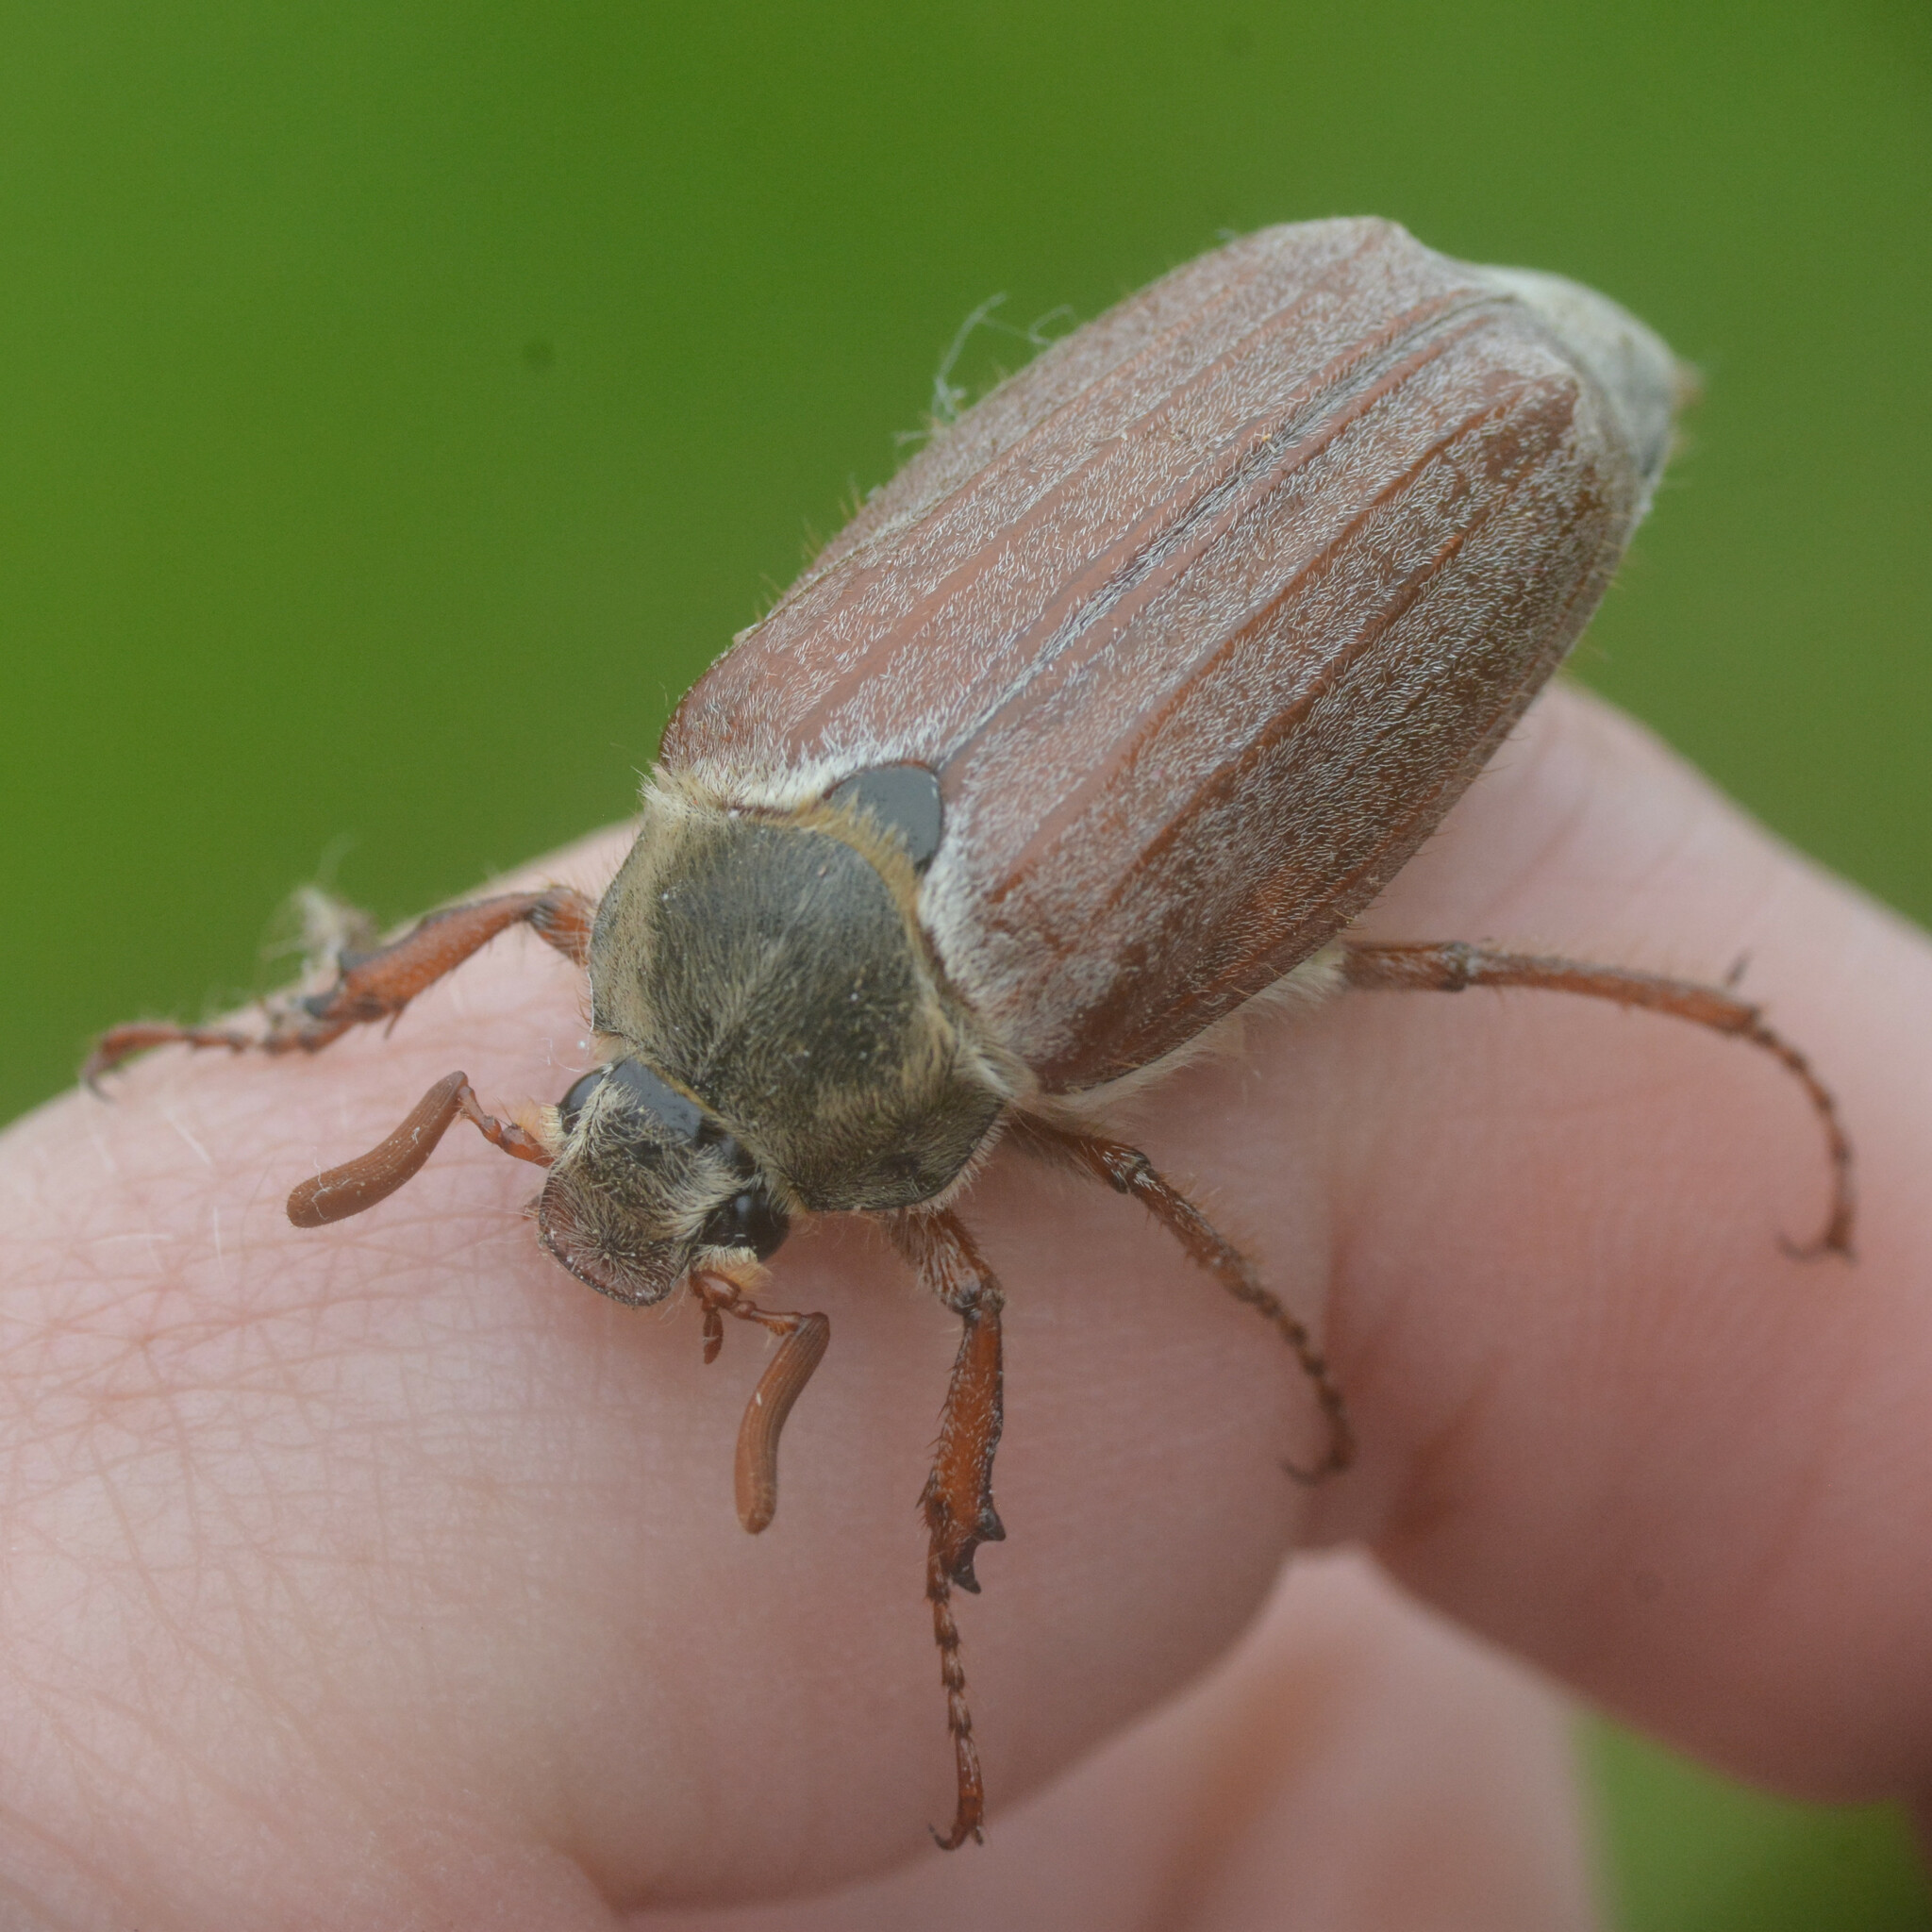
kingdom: Animalia
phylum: Arthropoda
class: Insecta
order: Coleoptera
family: Scarabaeidae
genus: Melolontha
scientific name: Melolontha melolontha
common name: Cockchafer maybeetle
